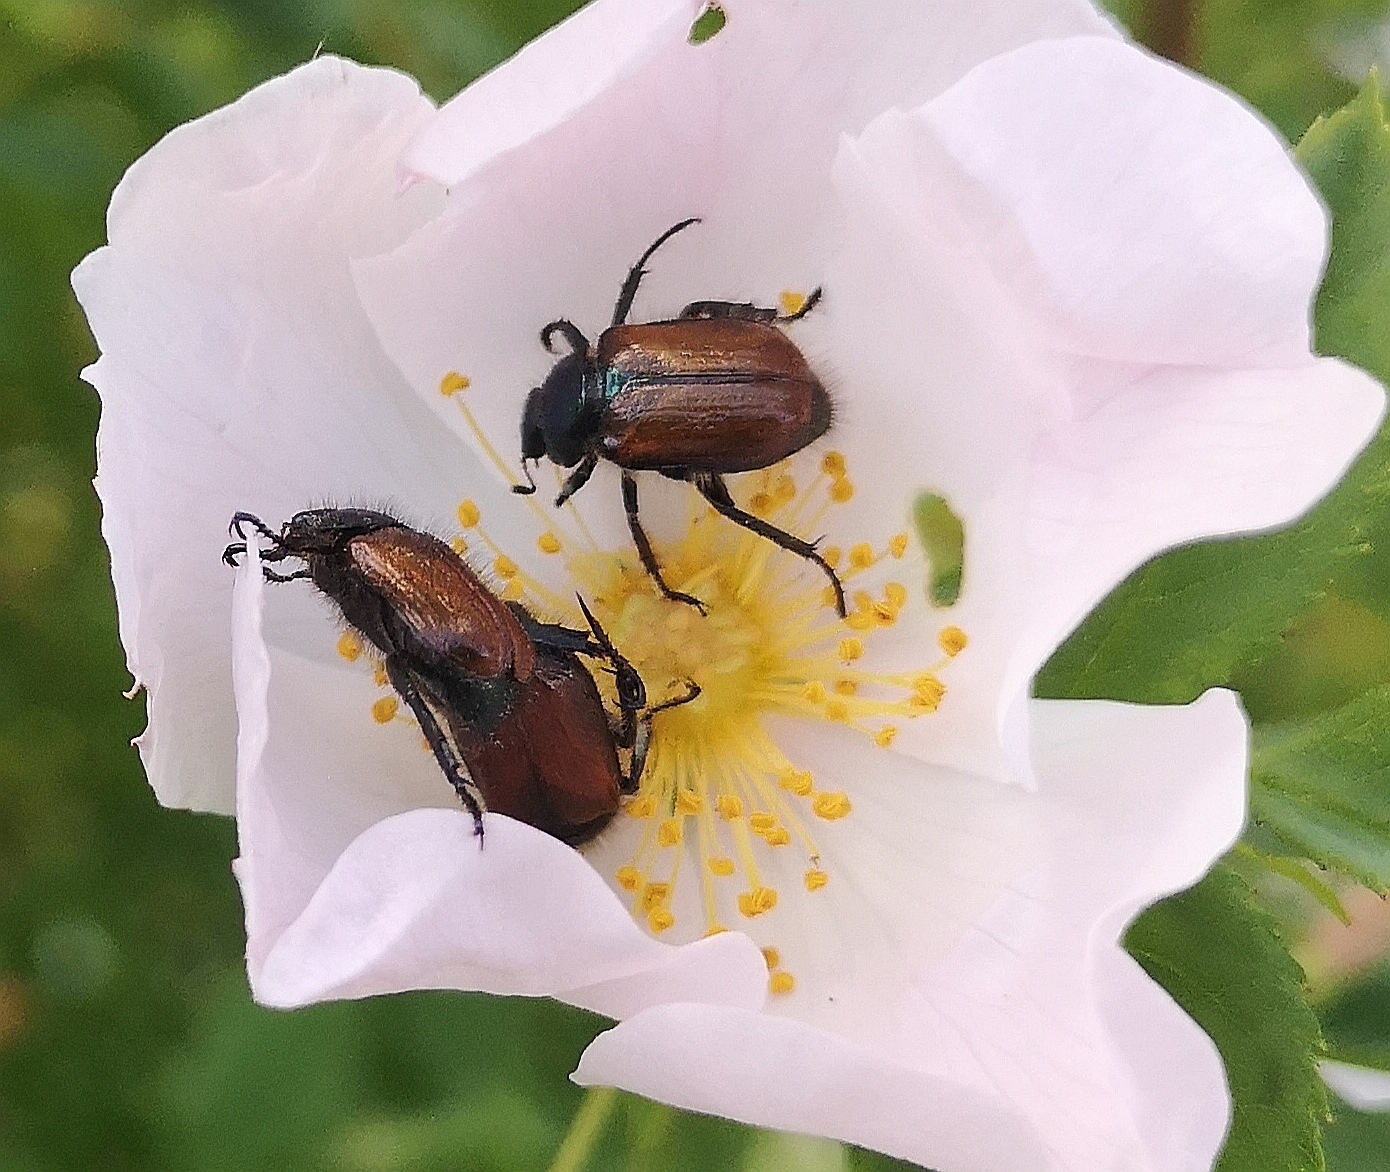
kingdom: Animalia
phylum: Arthropoda
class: Insecta
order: Coleoptera
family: Scarabaeidae
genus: Phyllopertha
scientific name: Phyllopertha horticola
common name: Garden chafer
